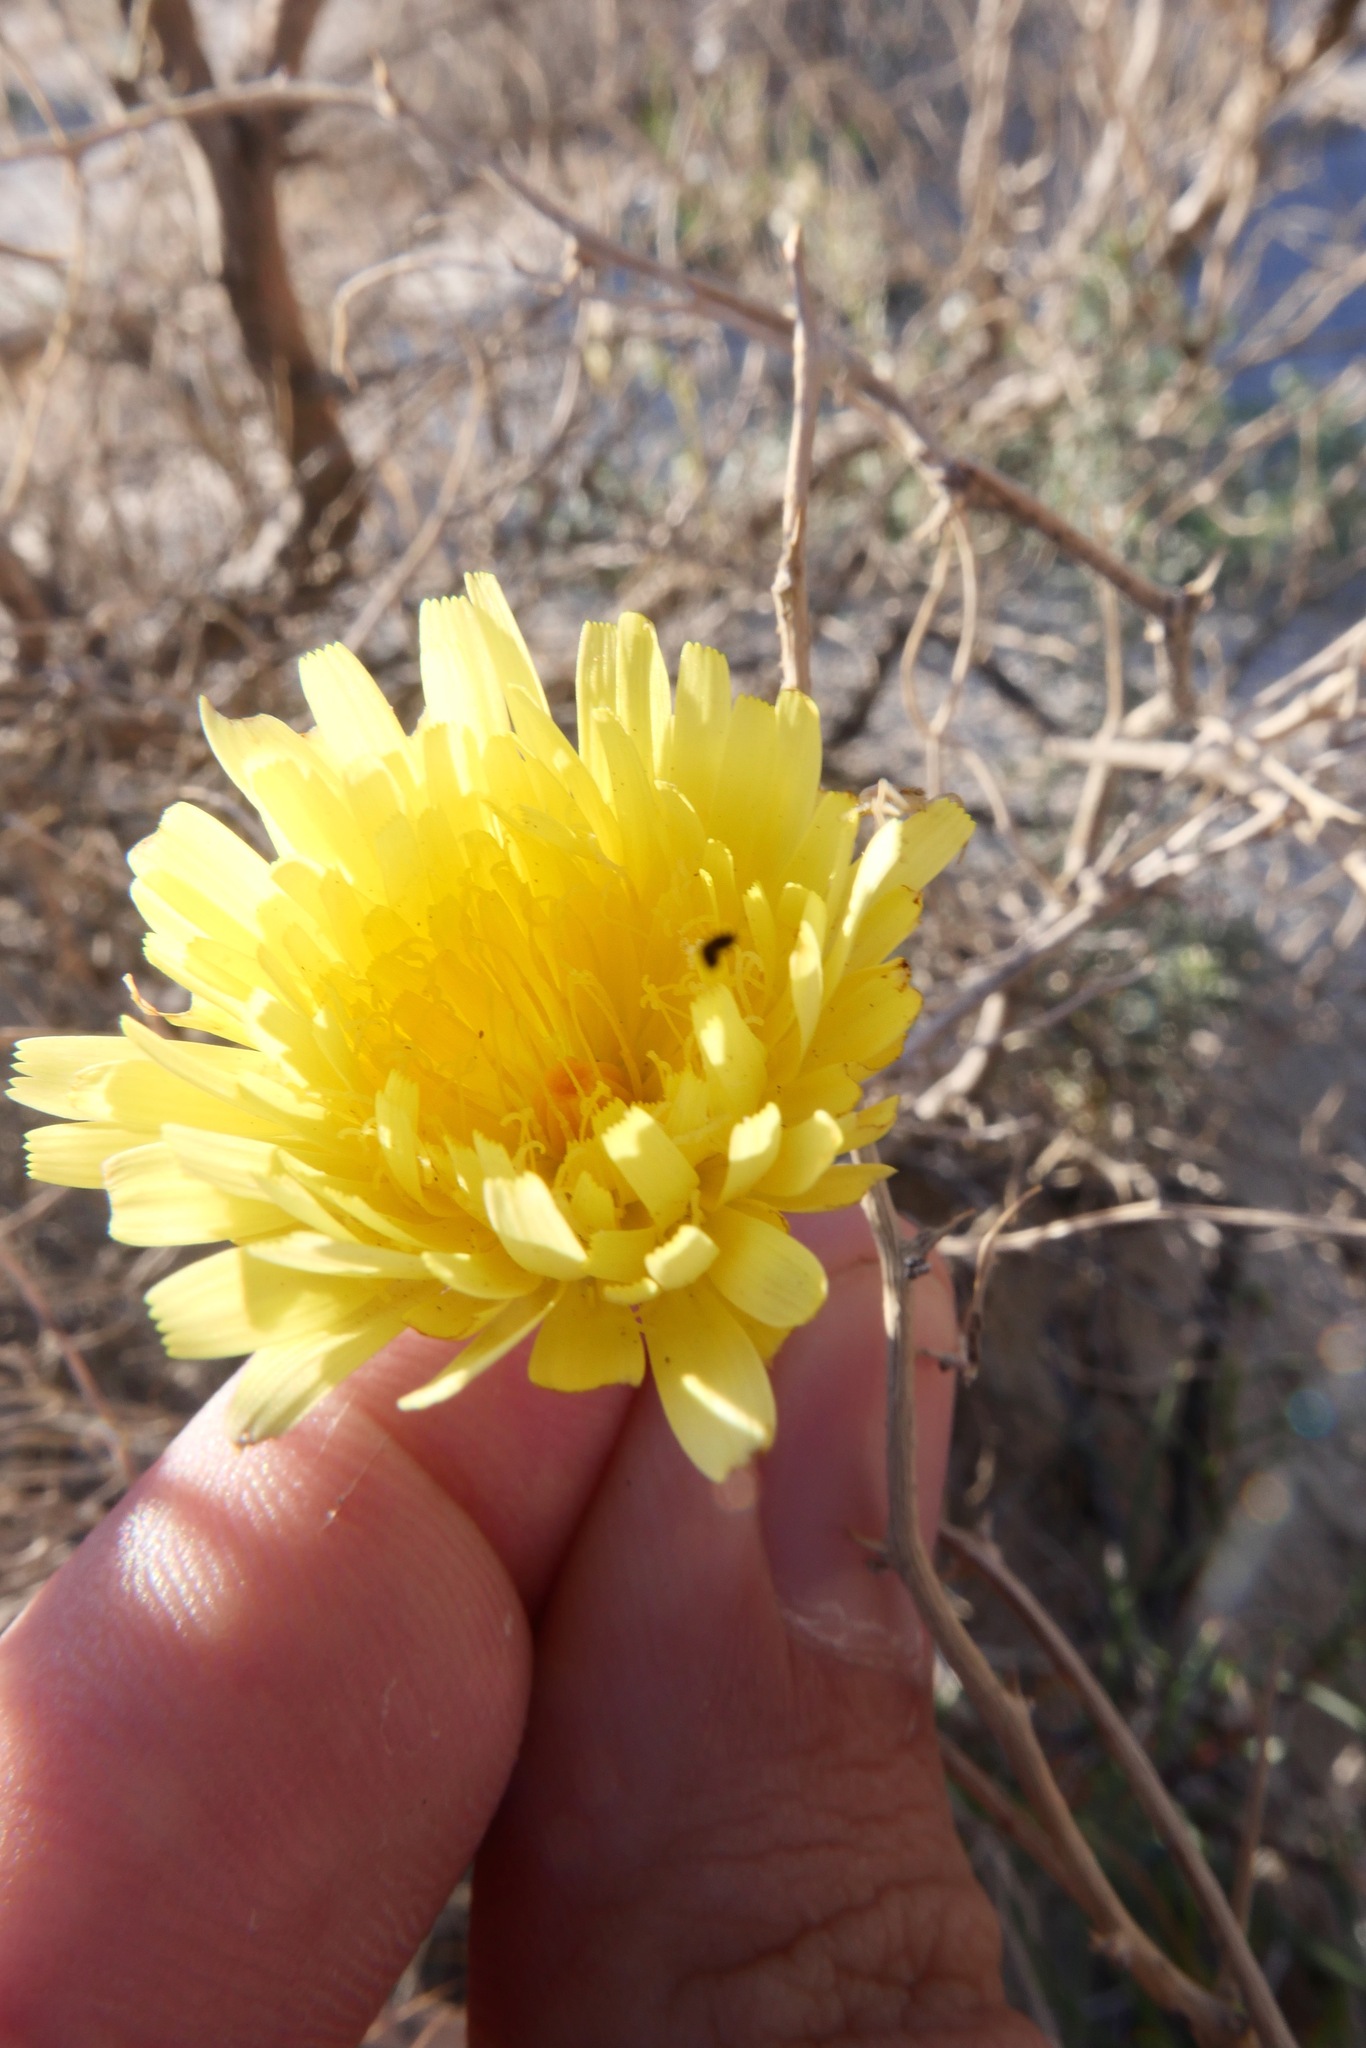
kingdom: Plantae
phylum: Tracheophyta
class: Magnoliopsida
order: Asterales
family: Asteraceae
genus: Malacothrix
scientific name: Malacothrix glabrata
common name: Smooth desert-dandelion
